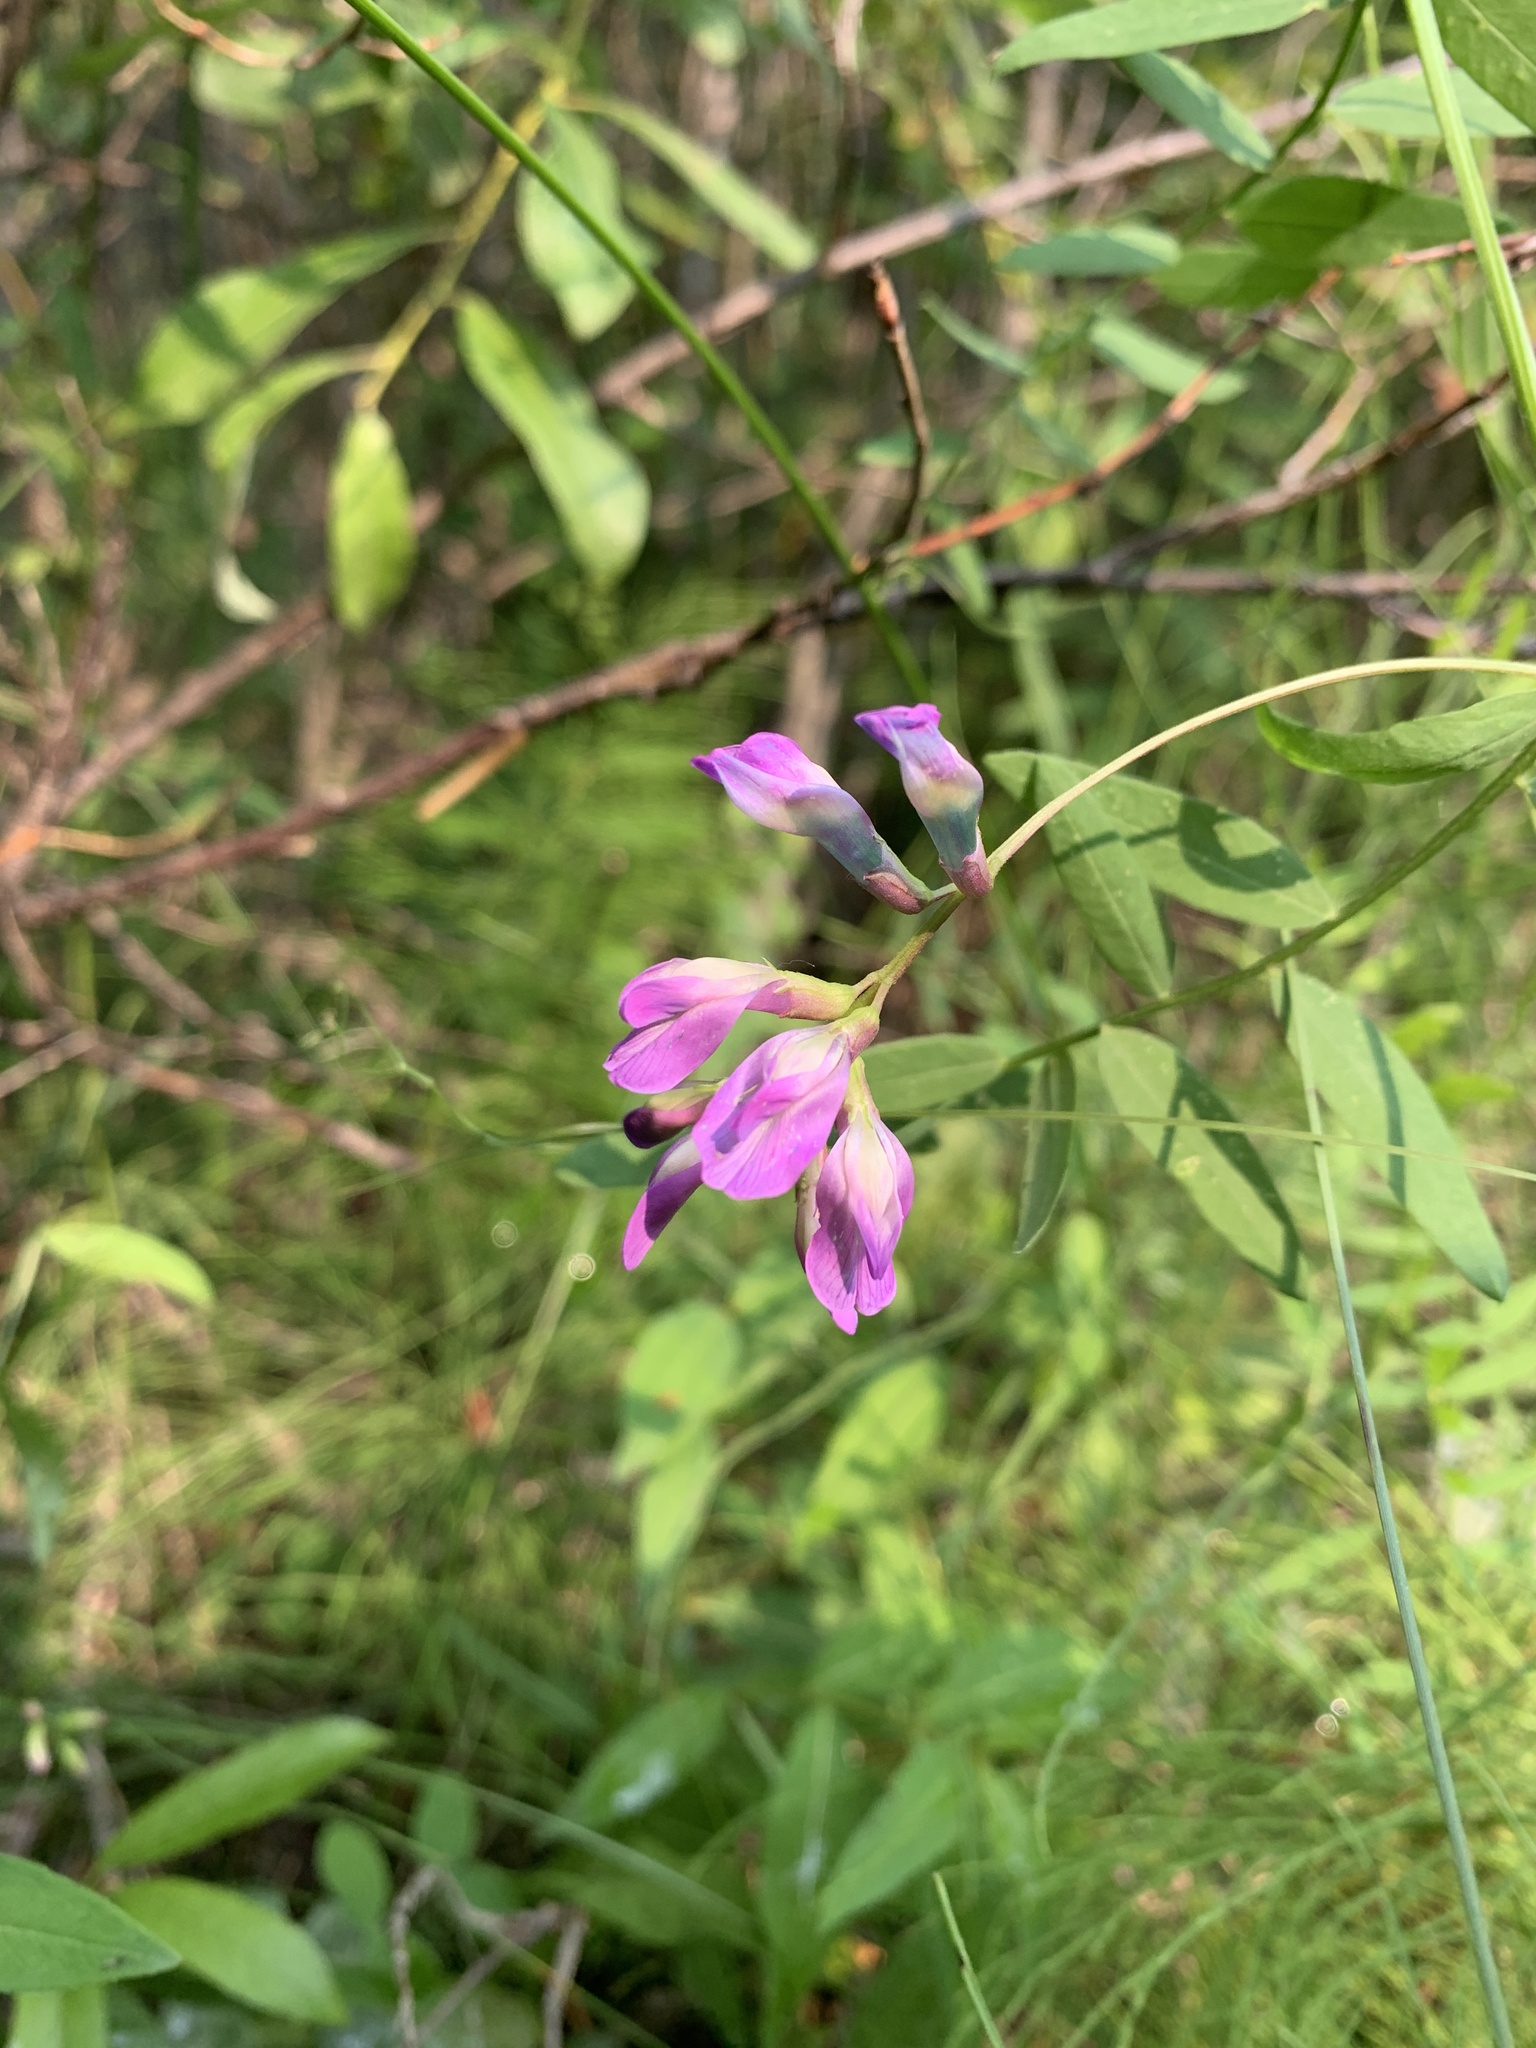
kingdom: Plantae
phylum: Tracheophyta
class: Magnoliopsida
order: Fabales
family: Fabaceae
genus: Vicia
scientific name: Vicia americana
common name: American vetch
